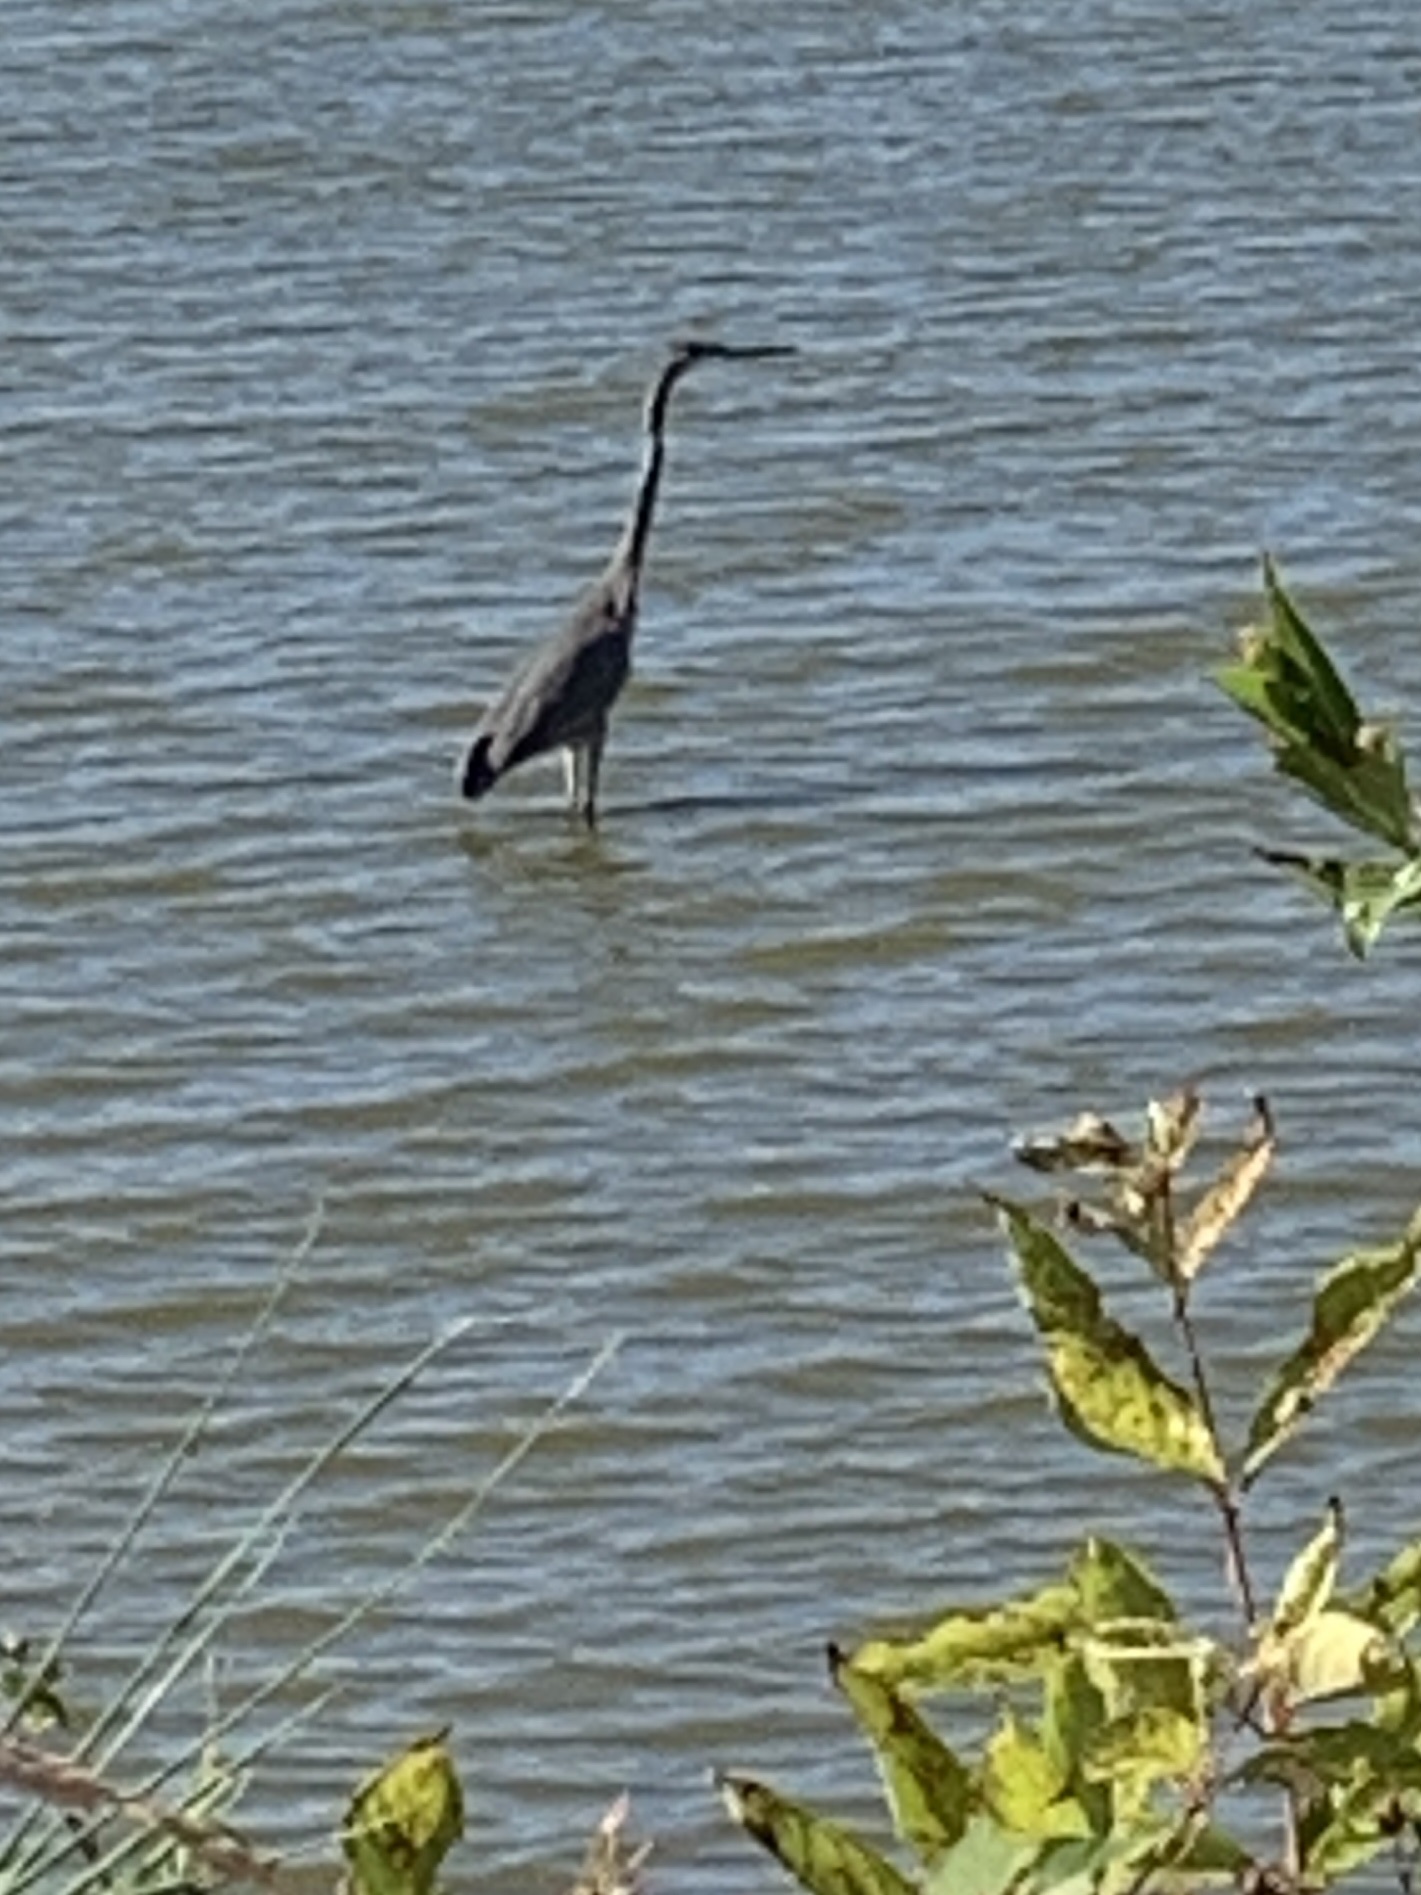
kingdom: Animalia
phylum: Chordata
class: Aves
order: Pelecaniformes
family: Ardeidae
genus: Ardea
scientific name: Ardea herodias
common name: Great blue heron
